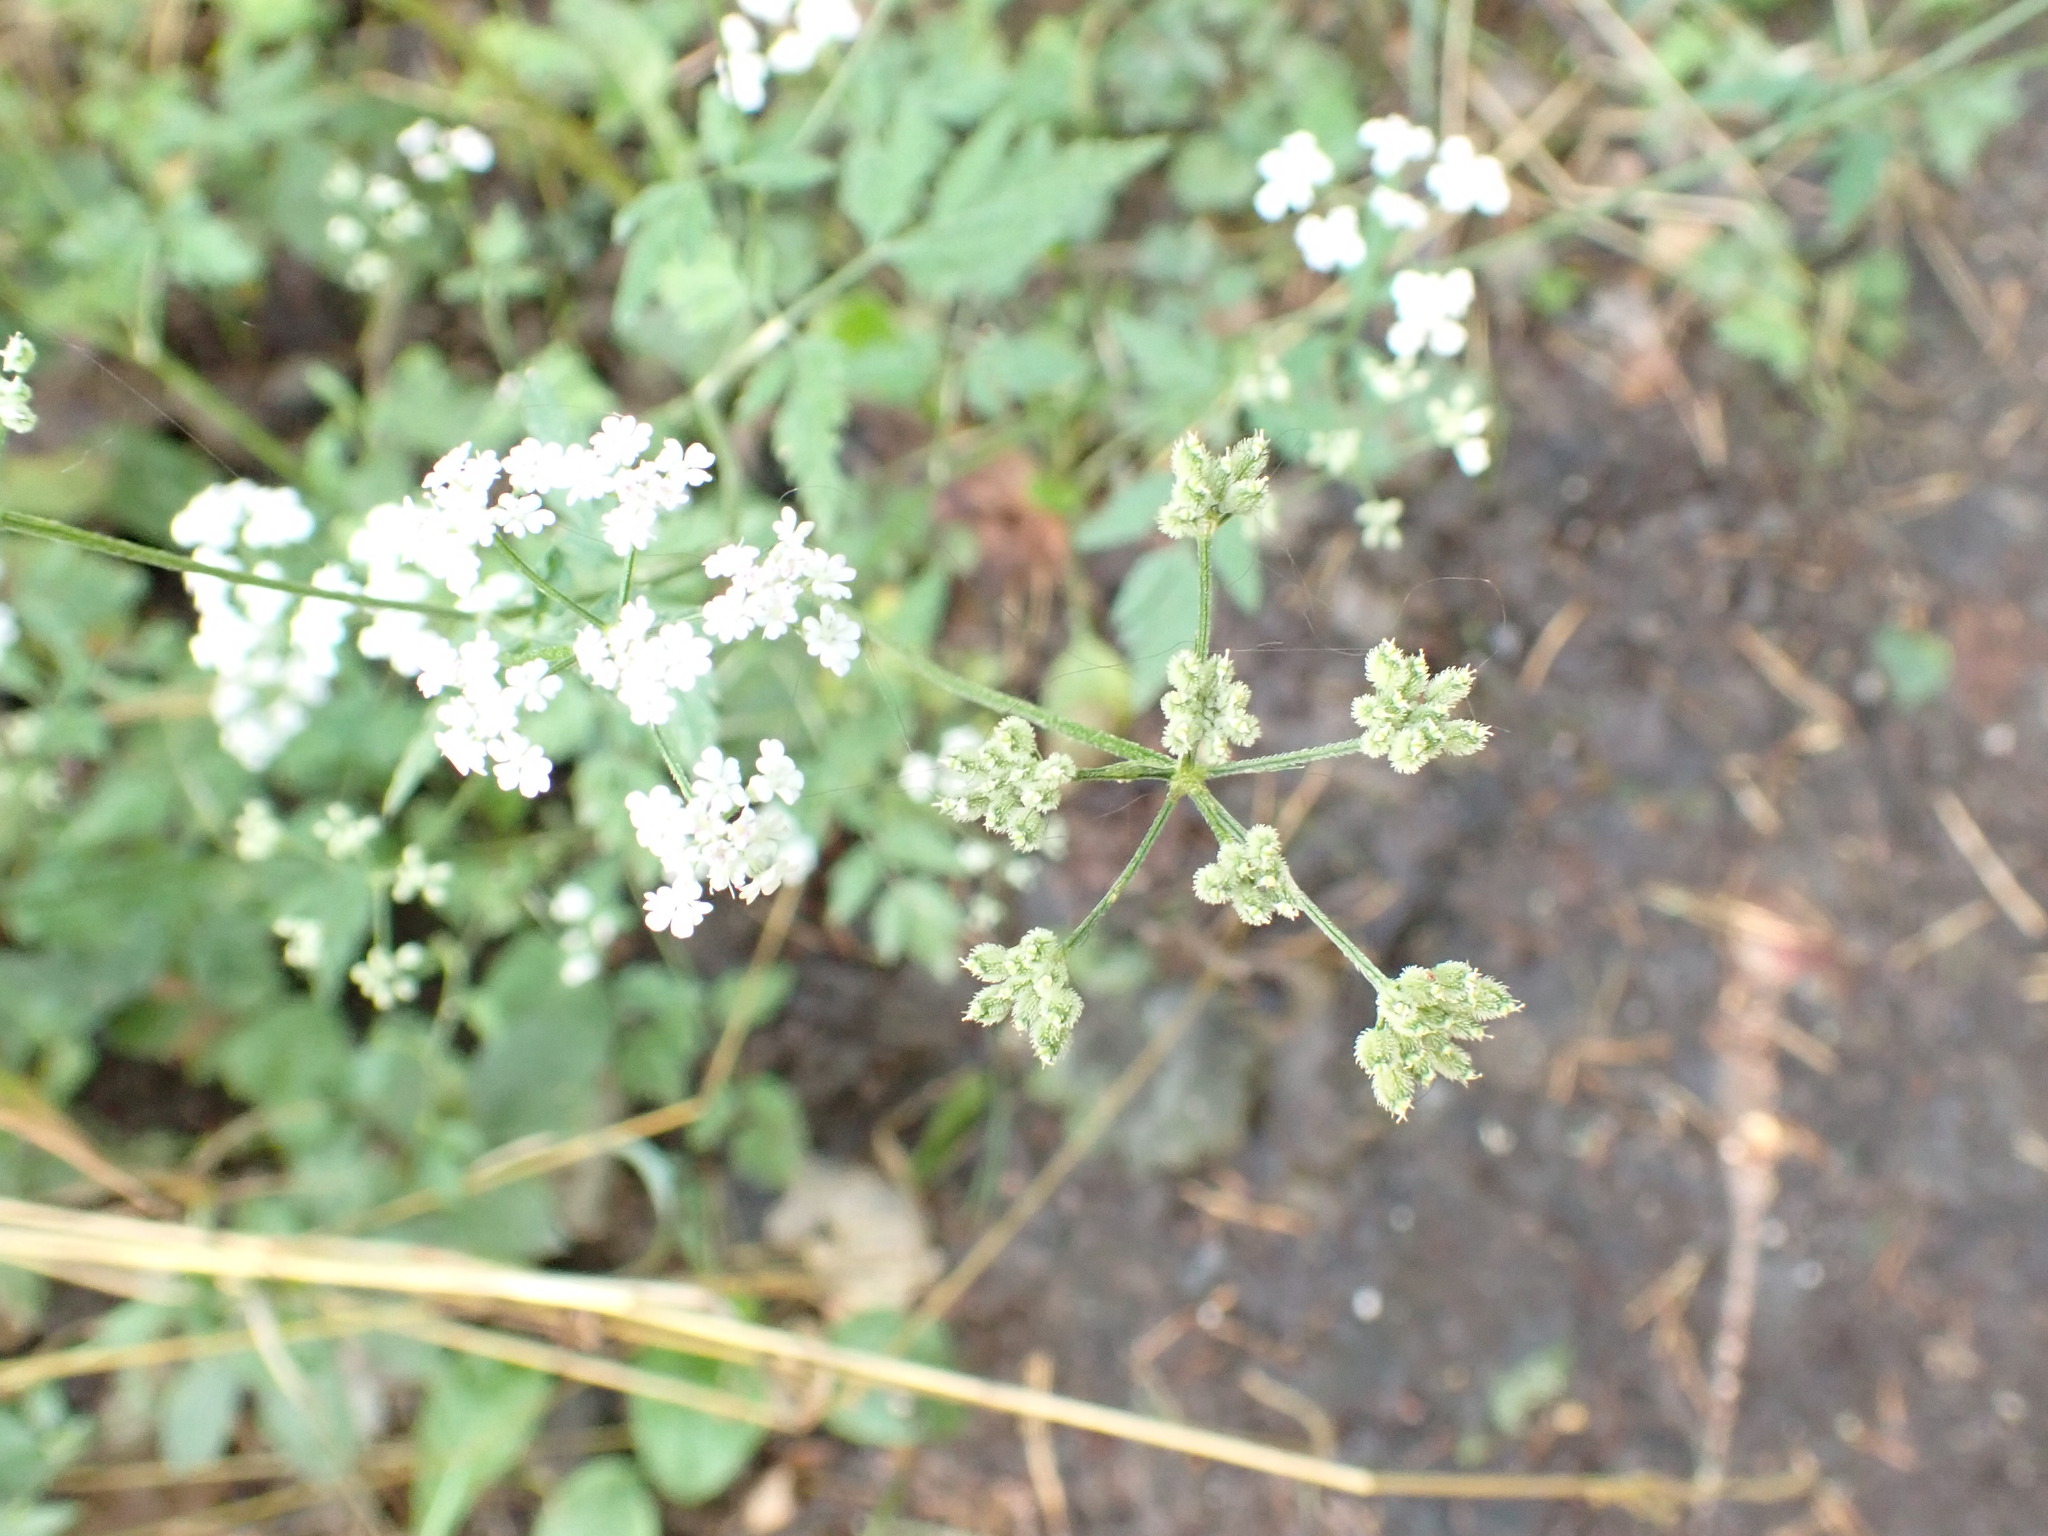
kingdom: Plantae
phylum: Tracheophyta
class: Magnoliopsida
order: Apiales
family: Apiaceae
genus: Torilis
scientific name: Torilis japonica
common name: Upright hedge-parsley
